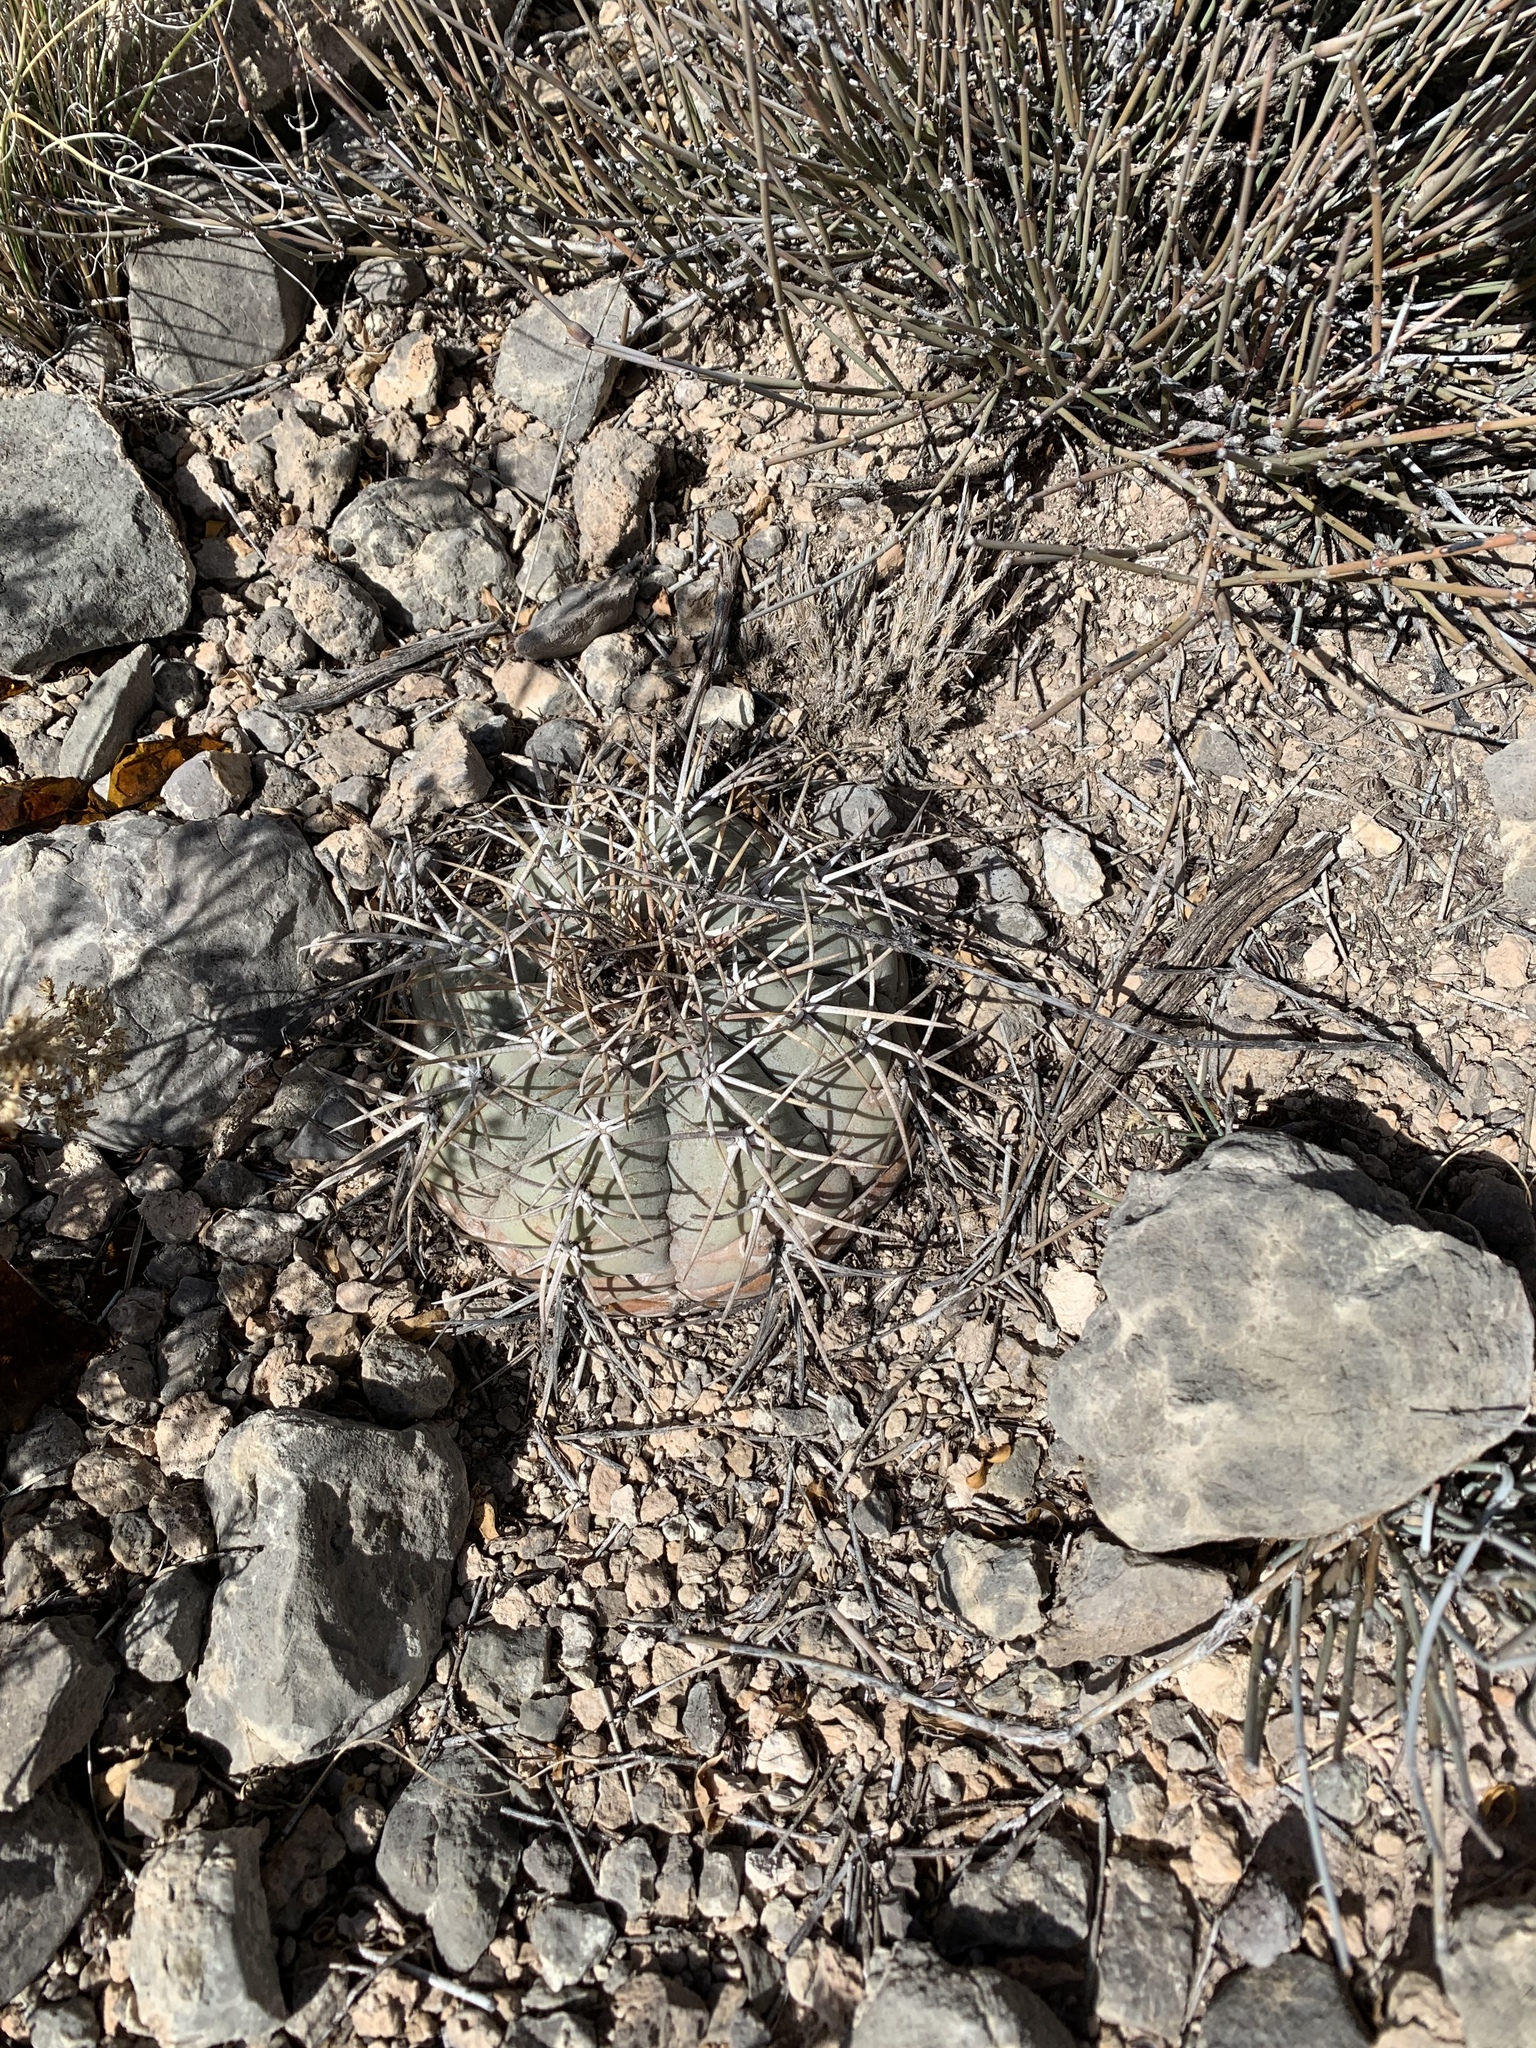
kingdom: Plantae
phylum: Tracheophyta
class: Magnoliopsida
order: Caryophyllales
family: Cactaceae
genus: Echinocactus
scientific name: Echinocactus horizonthalonius
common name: Devilshead
